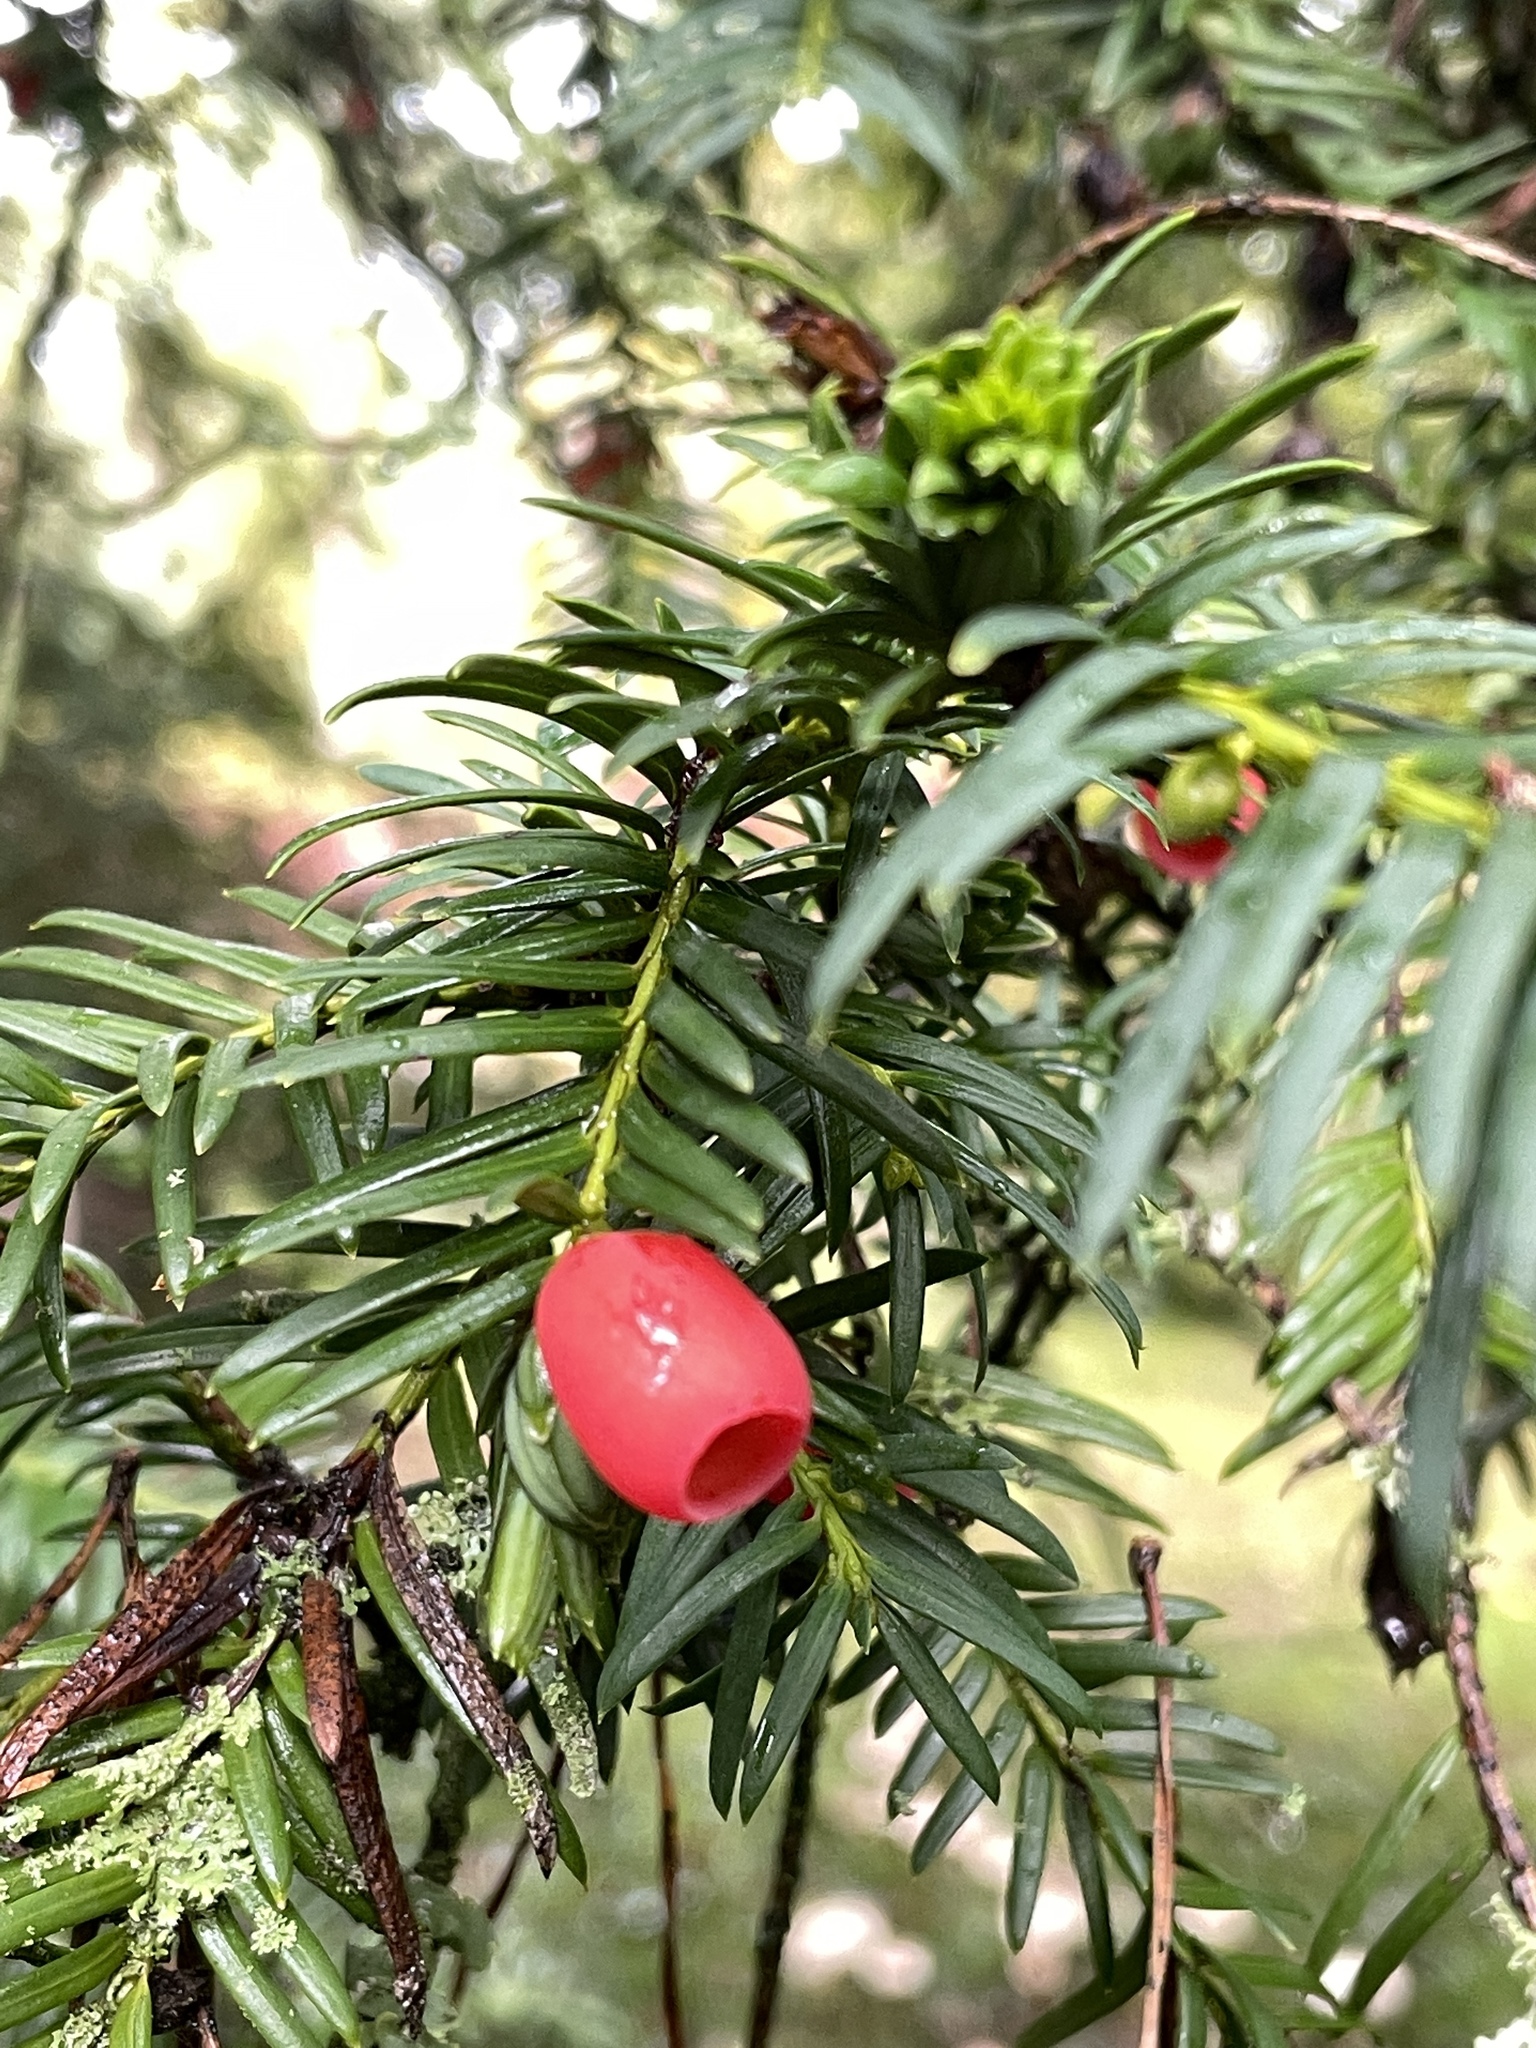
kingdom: Plantae
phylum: Tracheophyta
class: Pinopsida
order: Pinales
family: Taxaceae
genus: Taxus
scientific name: Taxus baccata
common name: Yew
